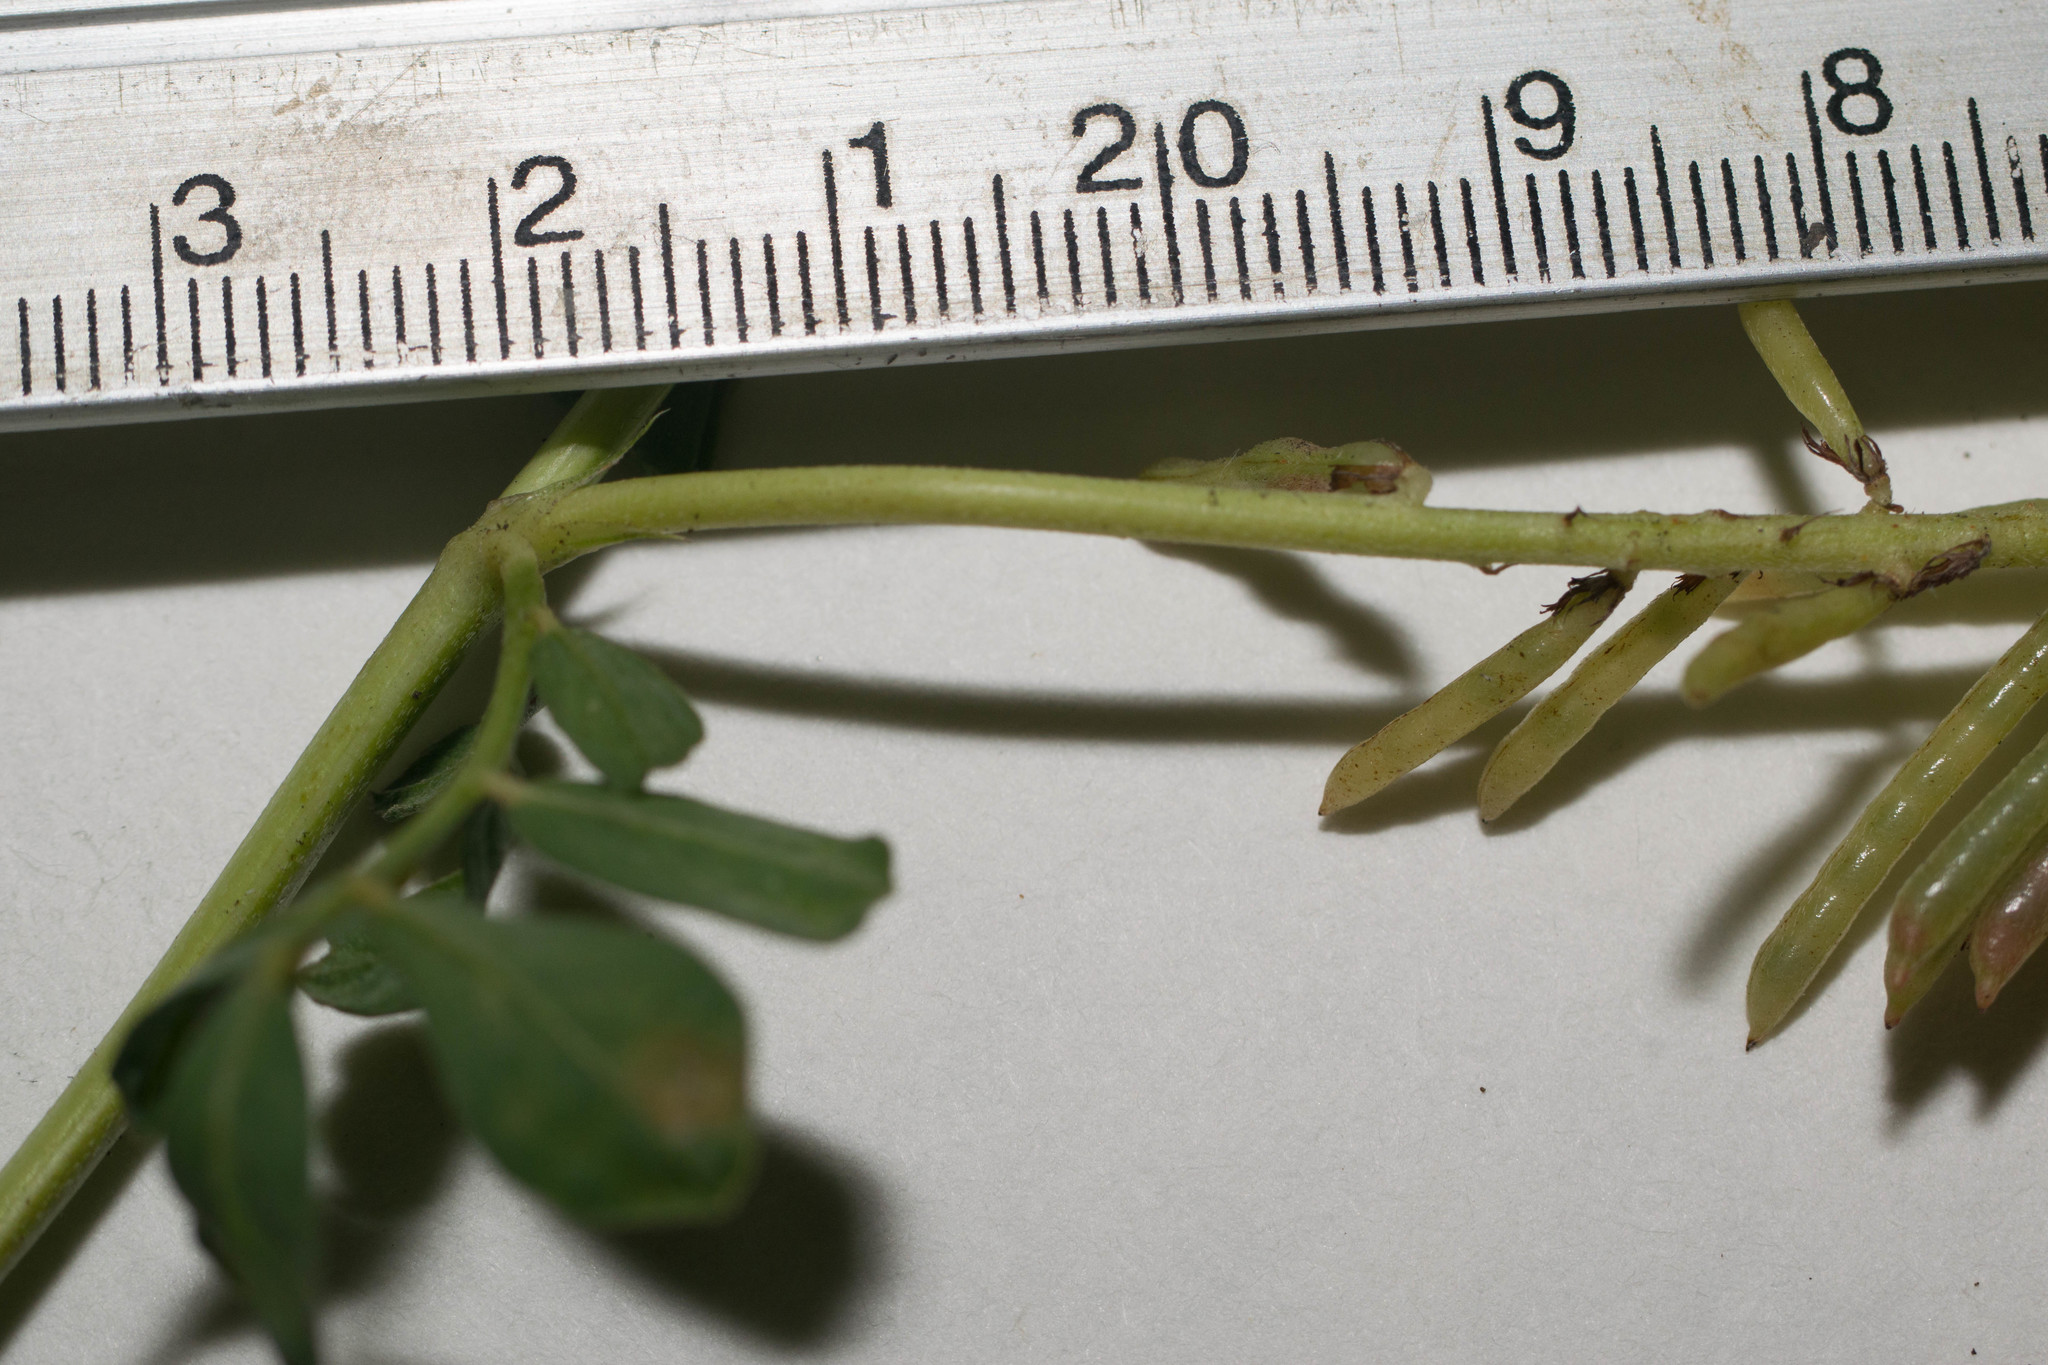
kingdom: Plantae
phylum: Tracheophyta
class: Magnoliopsida
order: Fabales
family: Fabaceae
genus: Indigofera
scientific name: Indigofera spicata
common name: Creeping indigo
